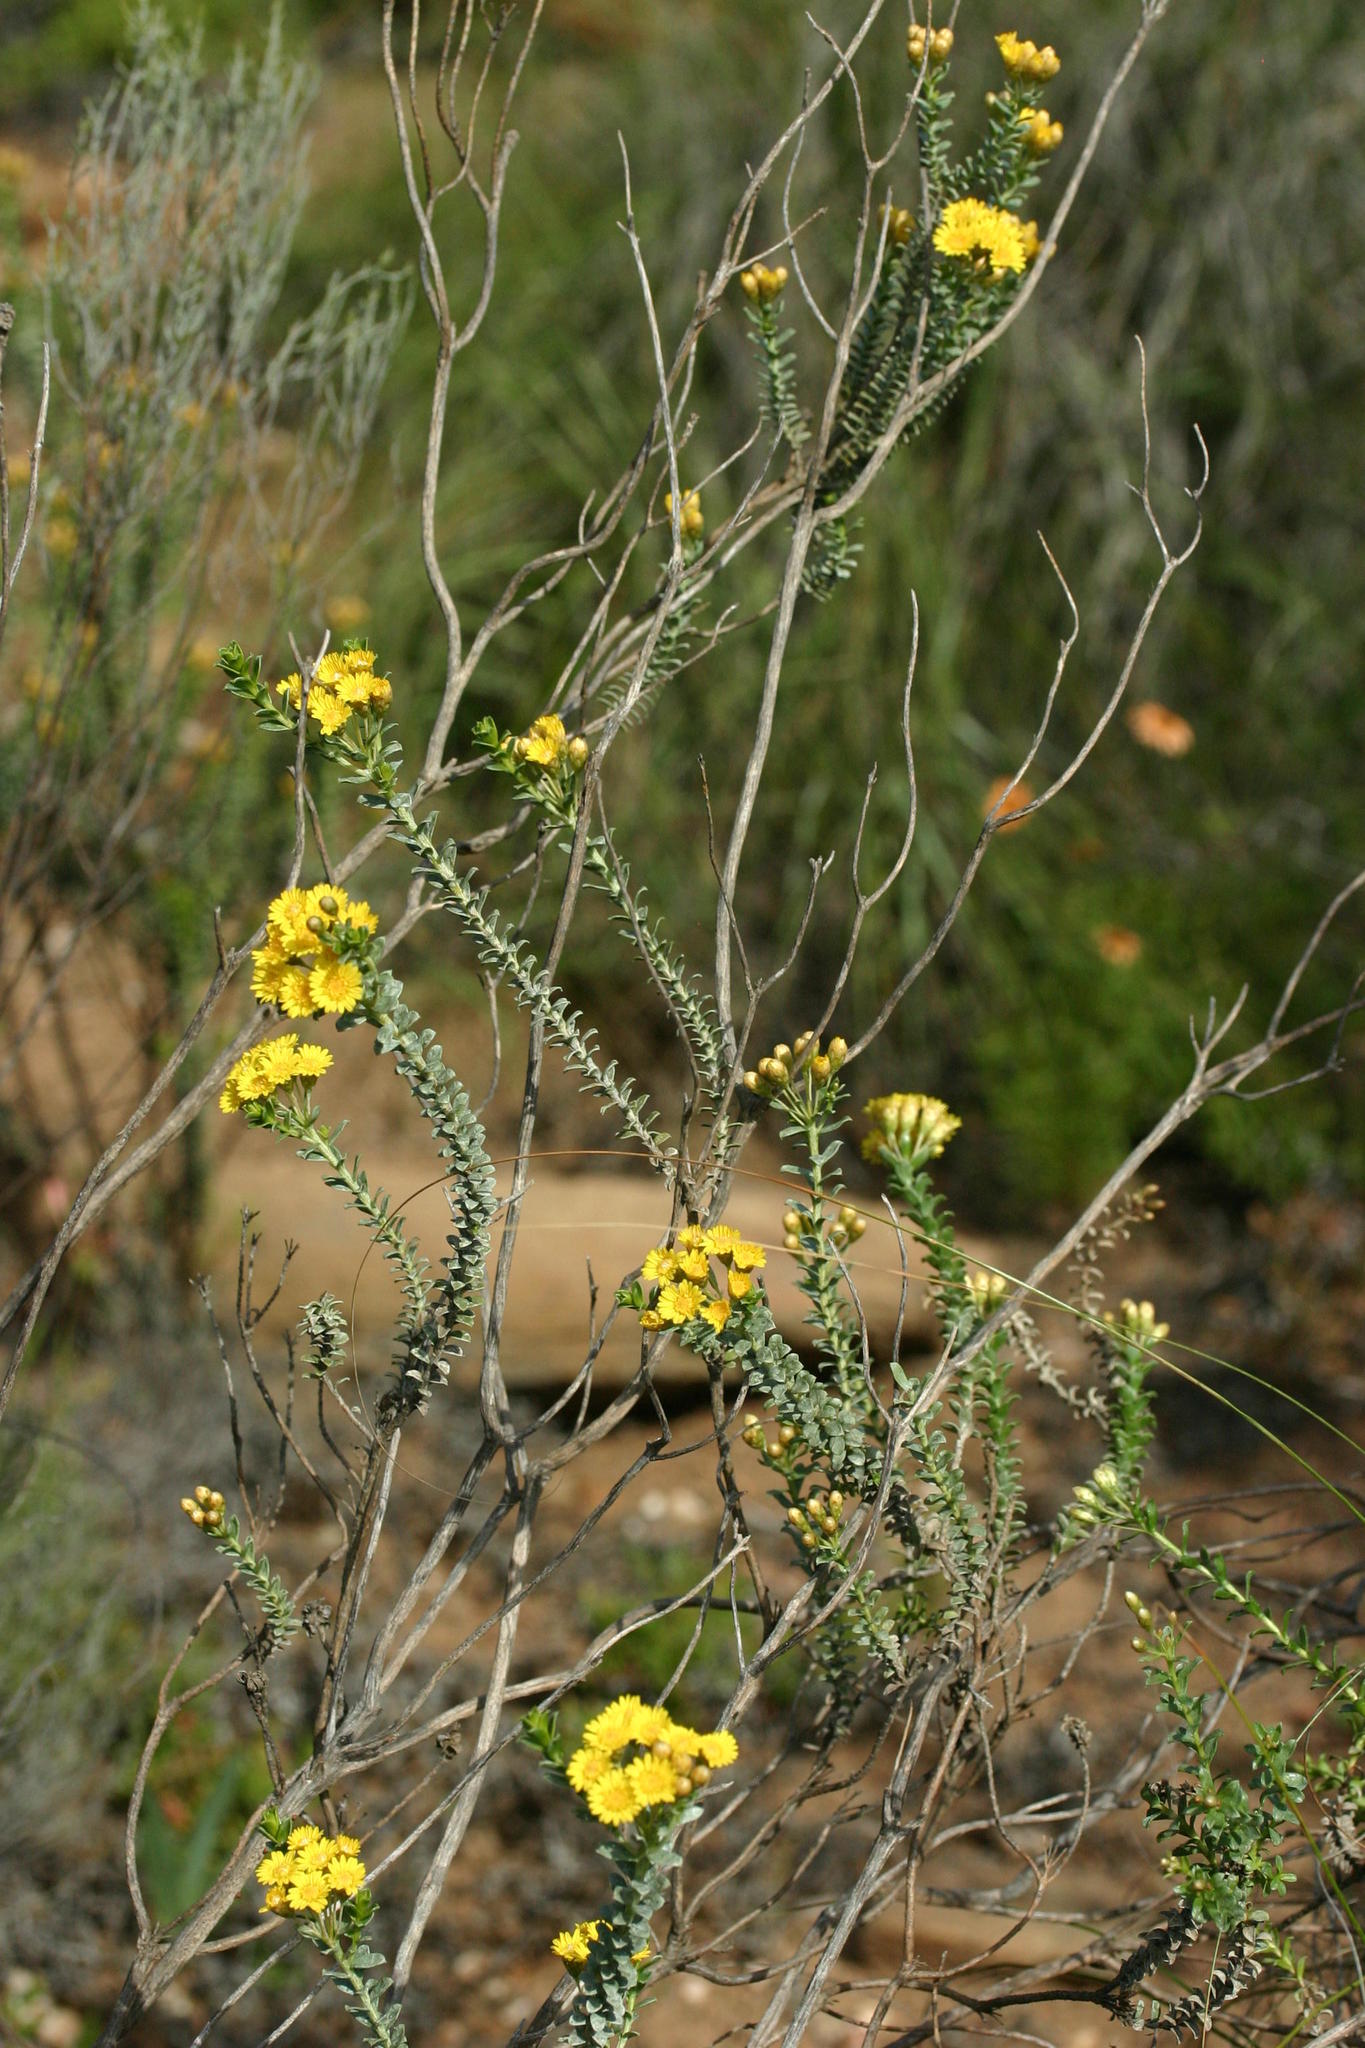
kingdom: Plantae
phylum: Tracheophyta
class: Magnoliopsida
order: Asterales
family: Asteraceae
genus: Oedera
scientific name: Oedera squarrosa
